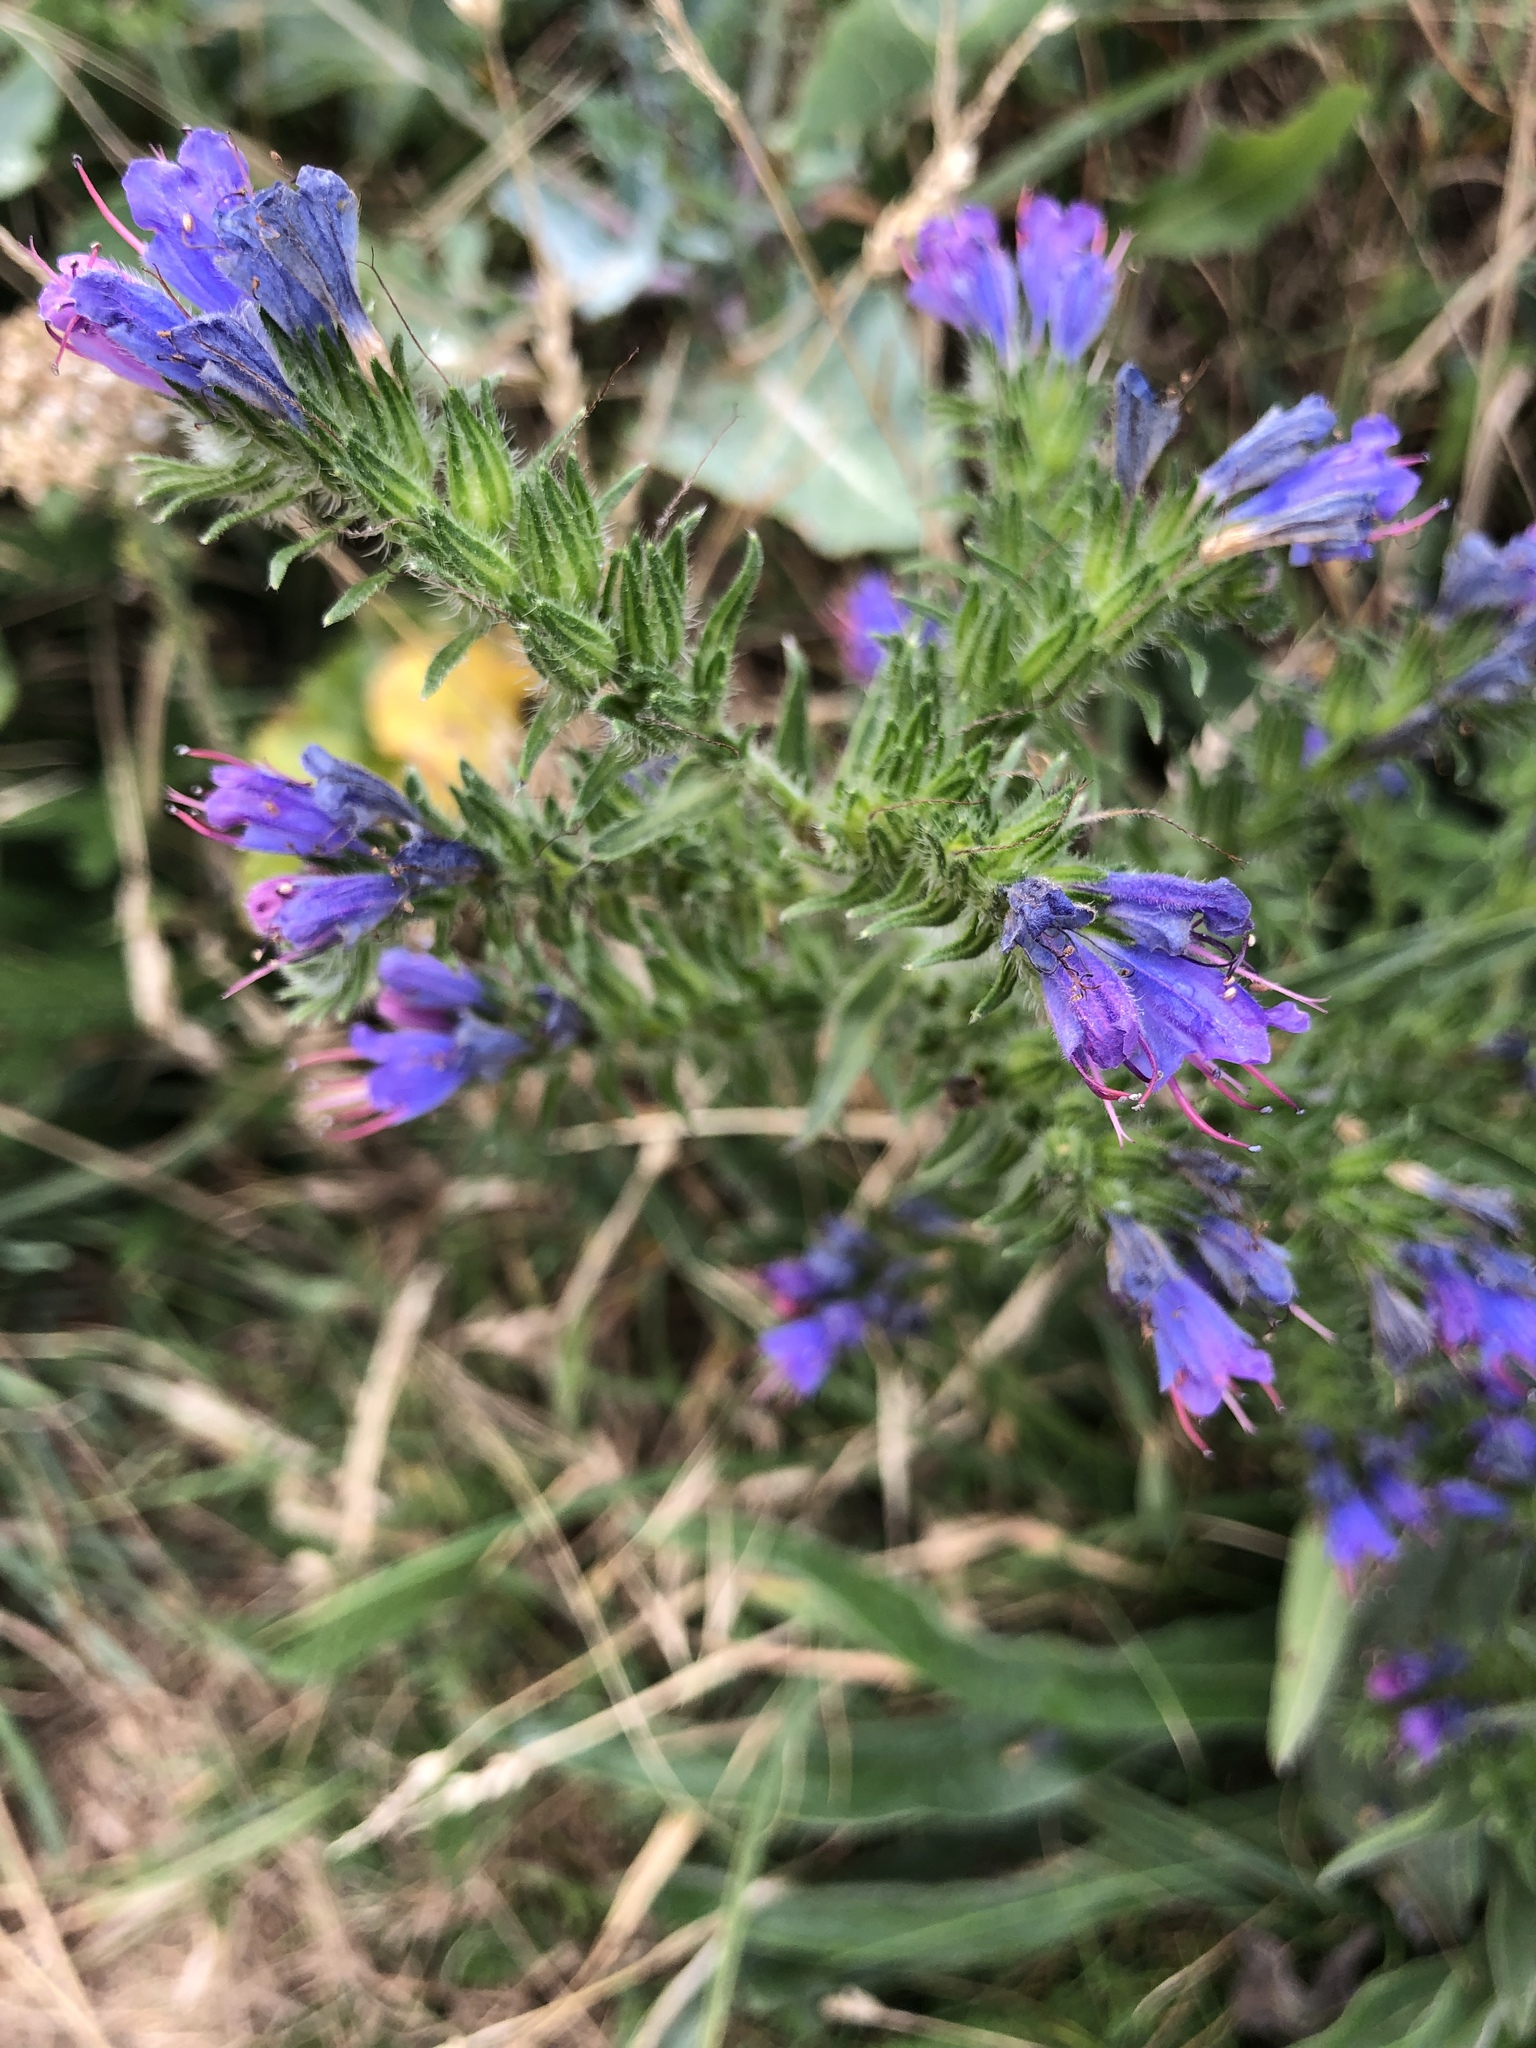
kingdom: Plantae
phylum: Tracheophyta
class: Magnoliopsida
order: Boraginales
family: Boraginaceae
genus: Echium
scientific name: Echium vulgare
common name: Common viper's bugloss
